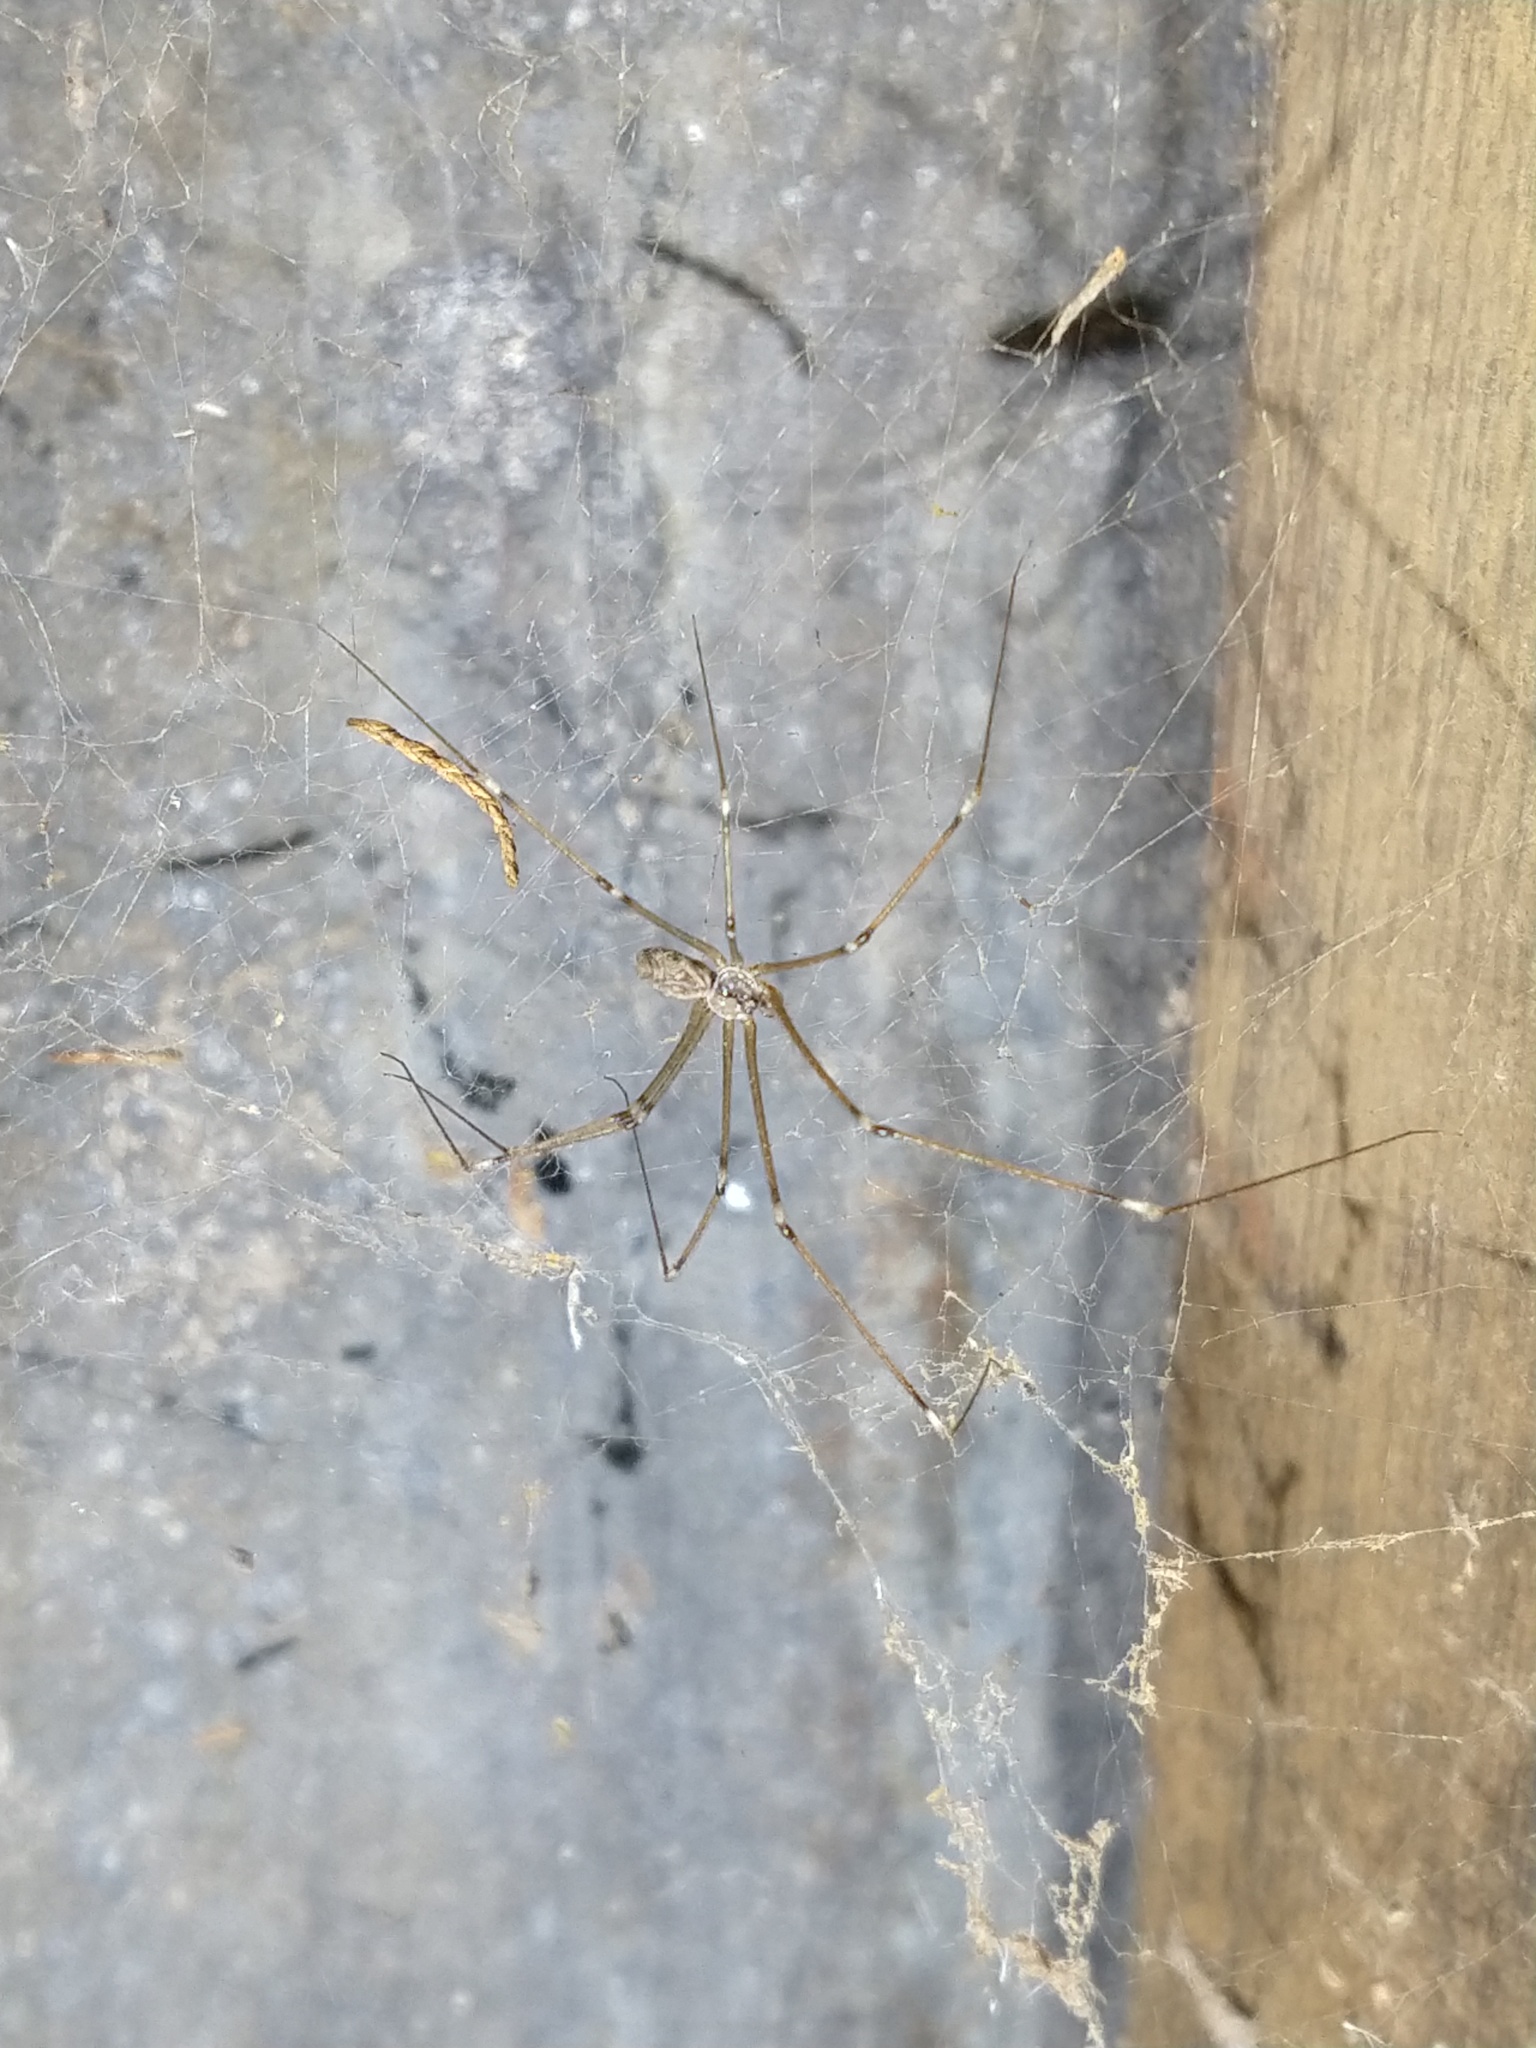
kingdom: Animalia
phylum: Arthropoda
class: Arachnida
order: Araneae
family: Pholcidae
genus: Holocnemus
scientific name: Holocnemus pluchei
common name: Marbled cellar spider
